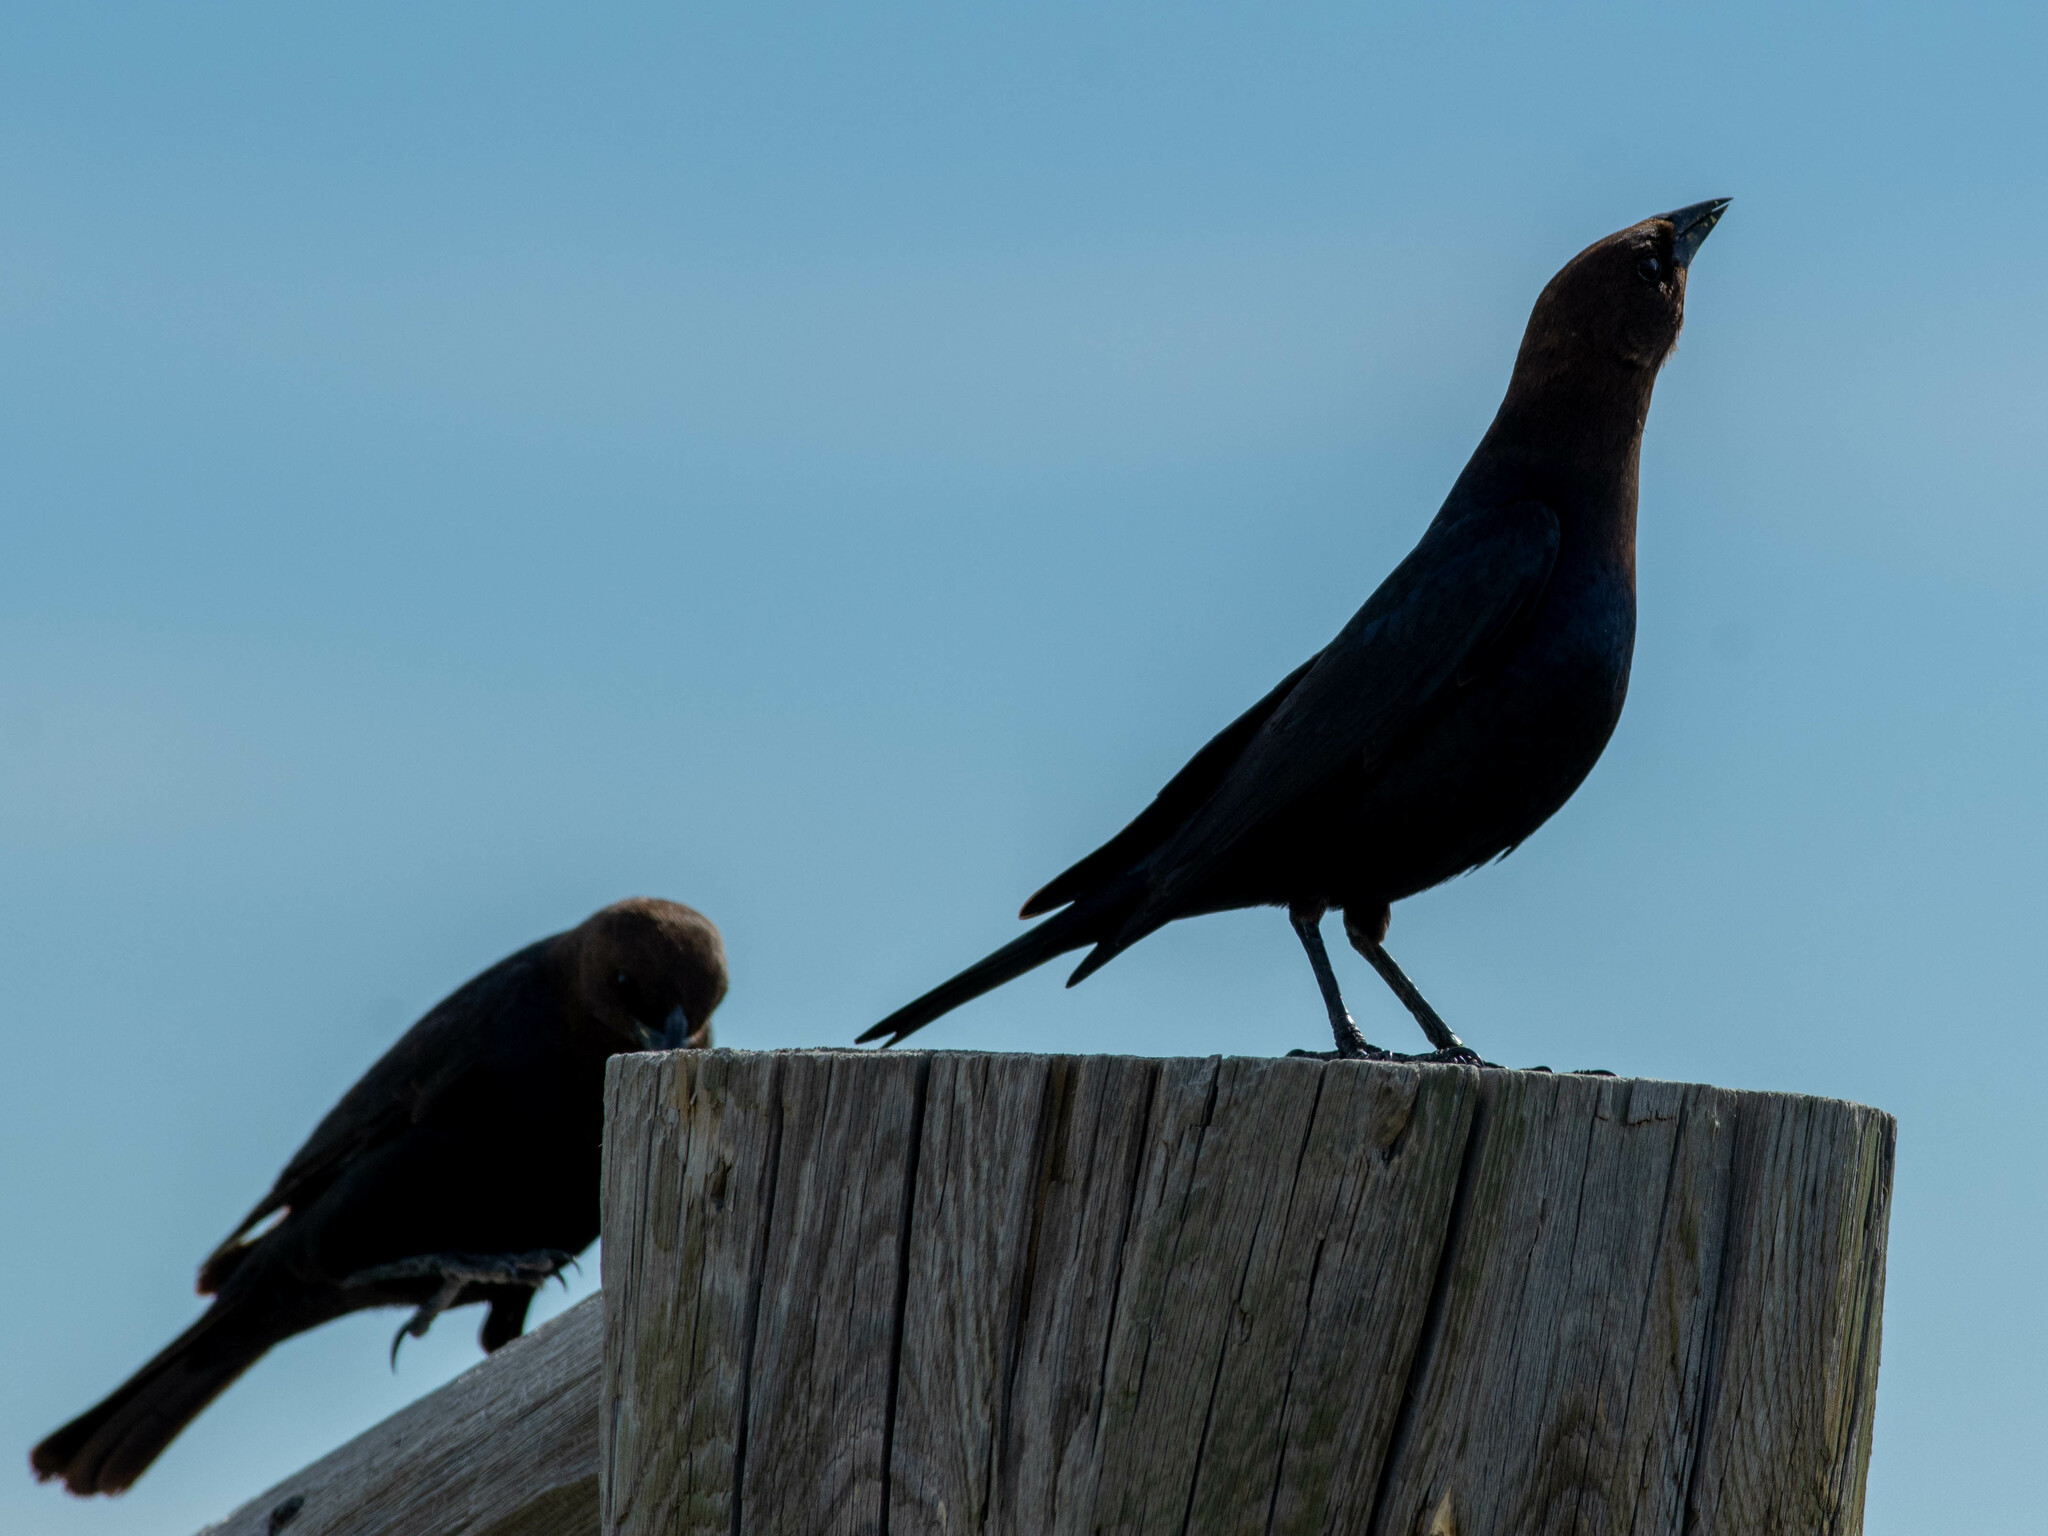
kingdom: Animalia
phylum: Chordata
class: Aves
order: Passeriformes
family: Icteridae
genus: Molothrus
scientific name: Molothrus ater
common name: Brown-headed cowbird
